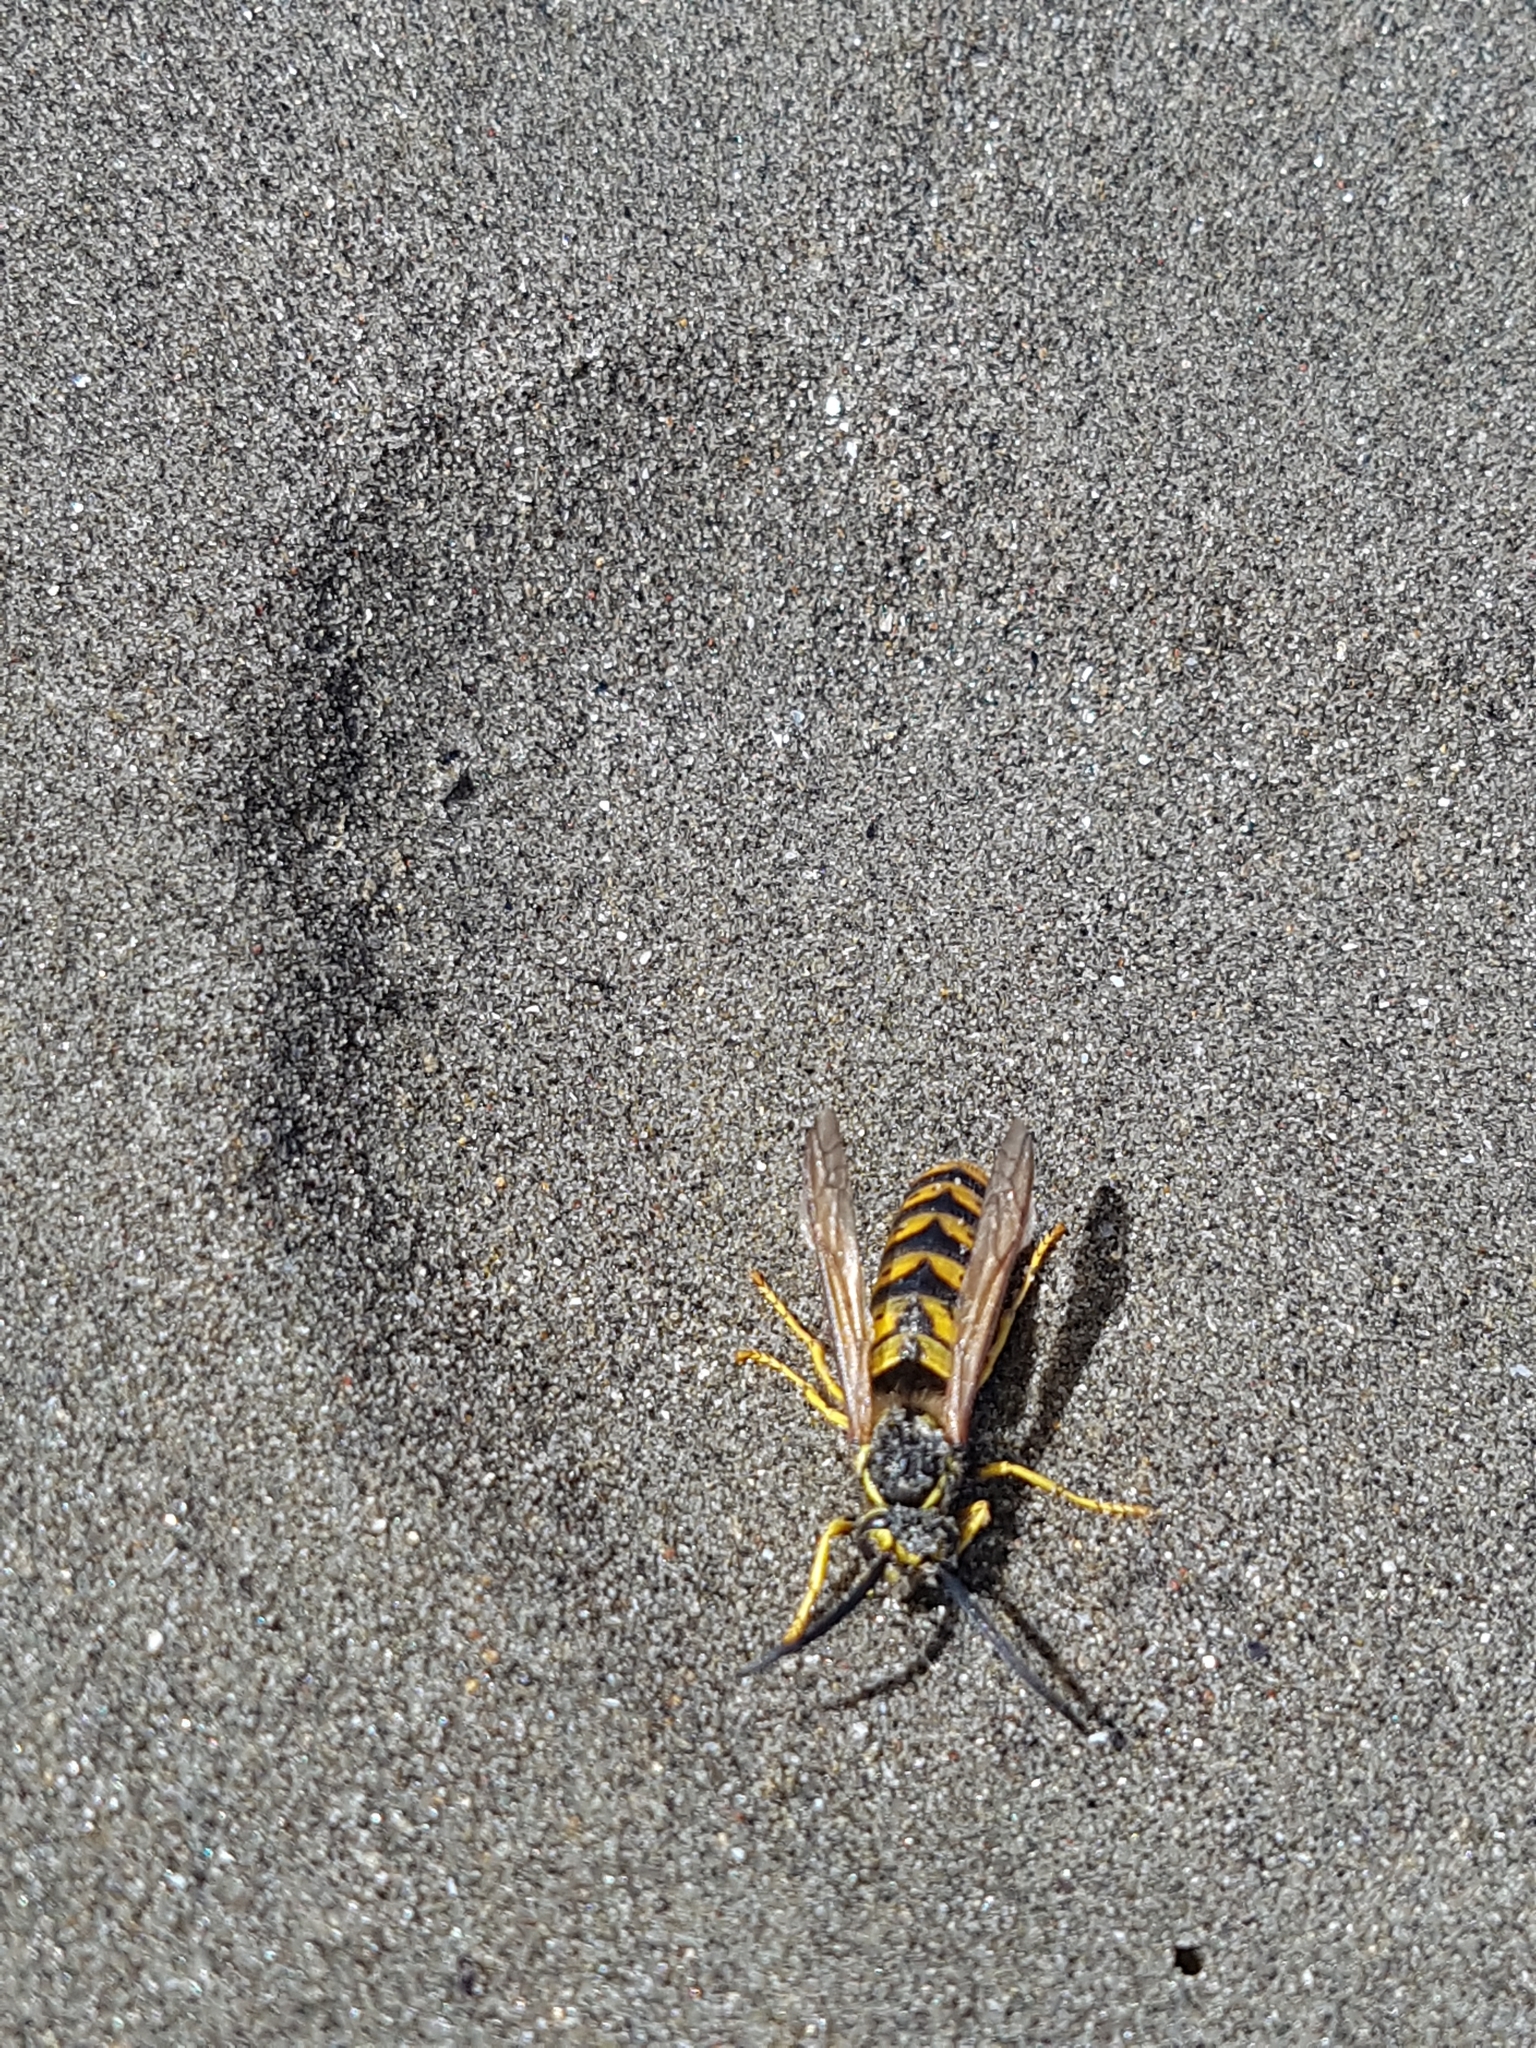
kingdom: Animalia
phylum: Arthropoda
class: Insecta
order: Hymenoptera
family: Vespidae
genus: Vespula
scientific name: Vespula germanica
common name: German wasp
